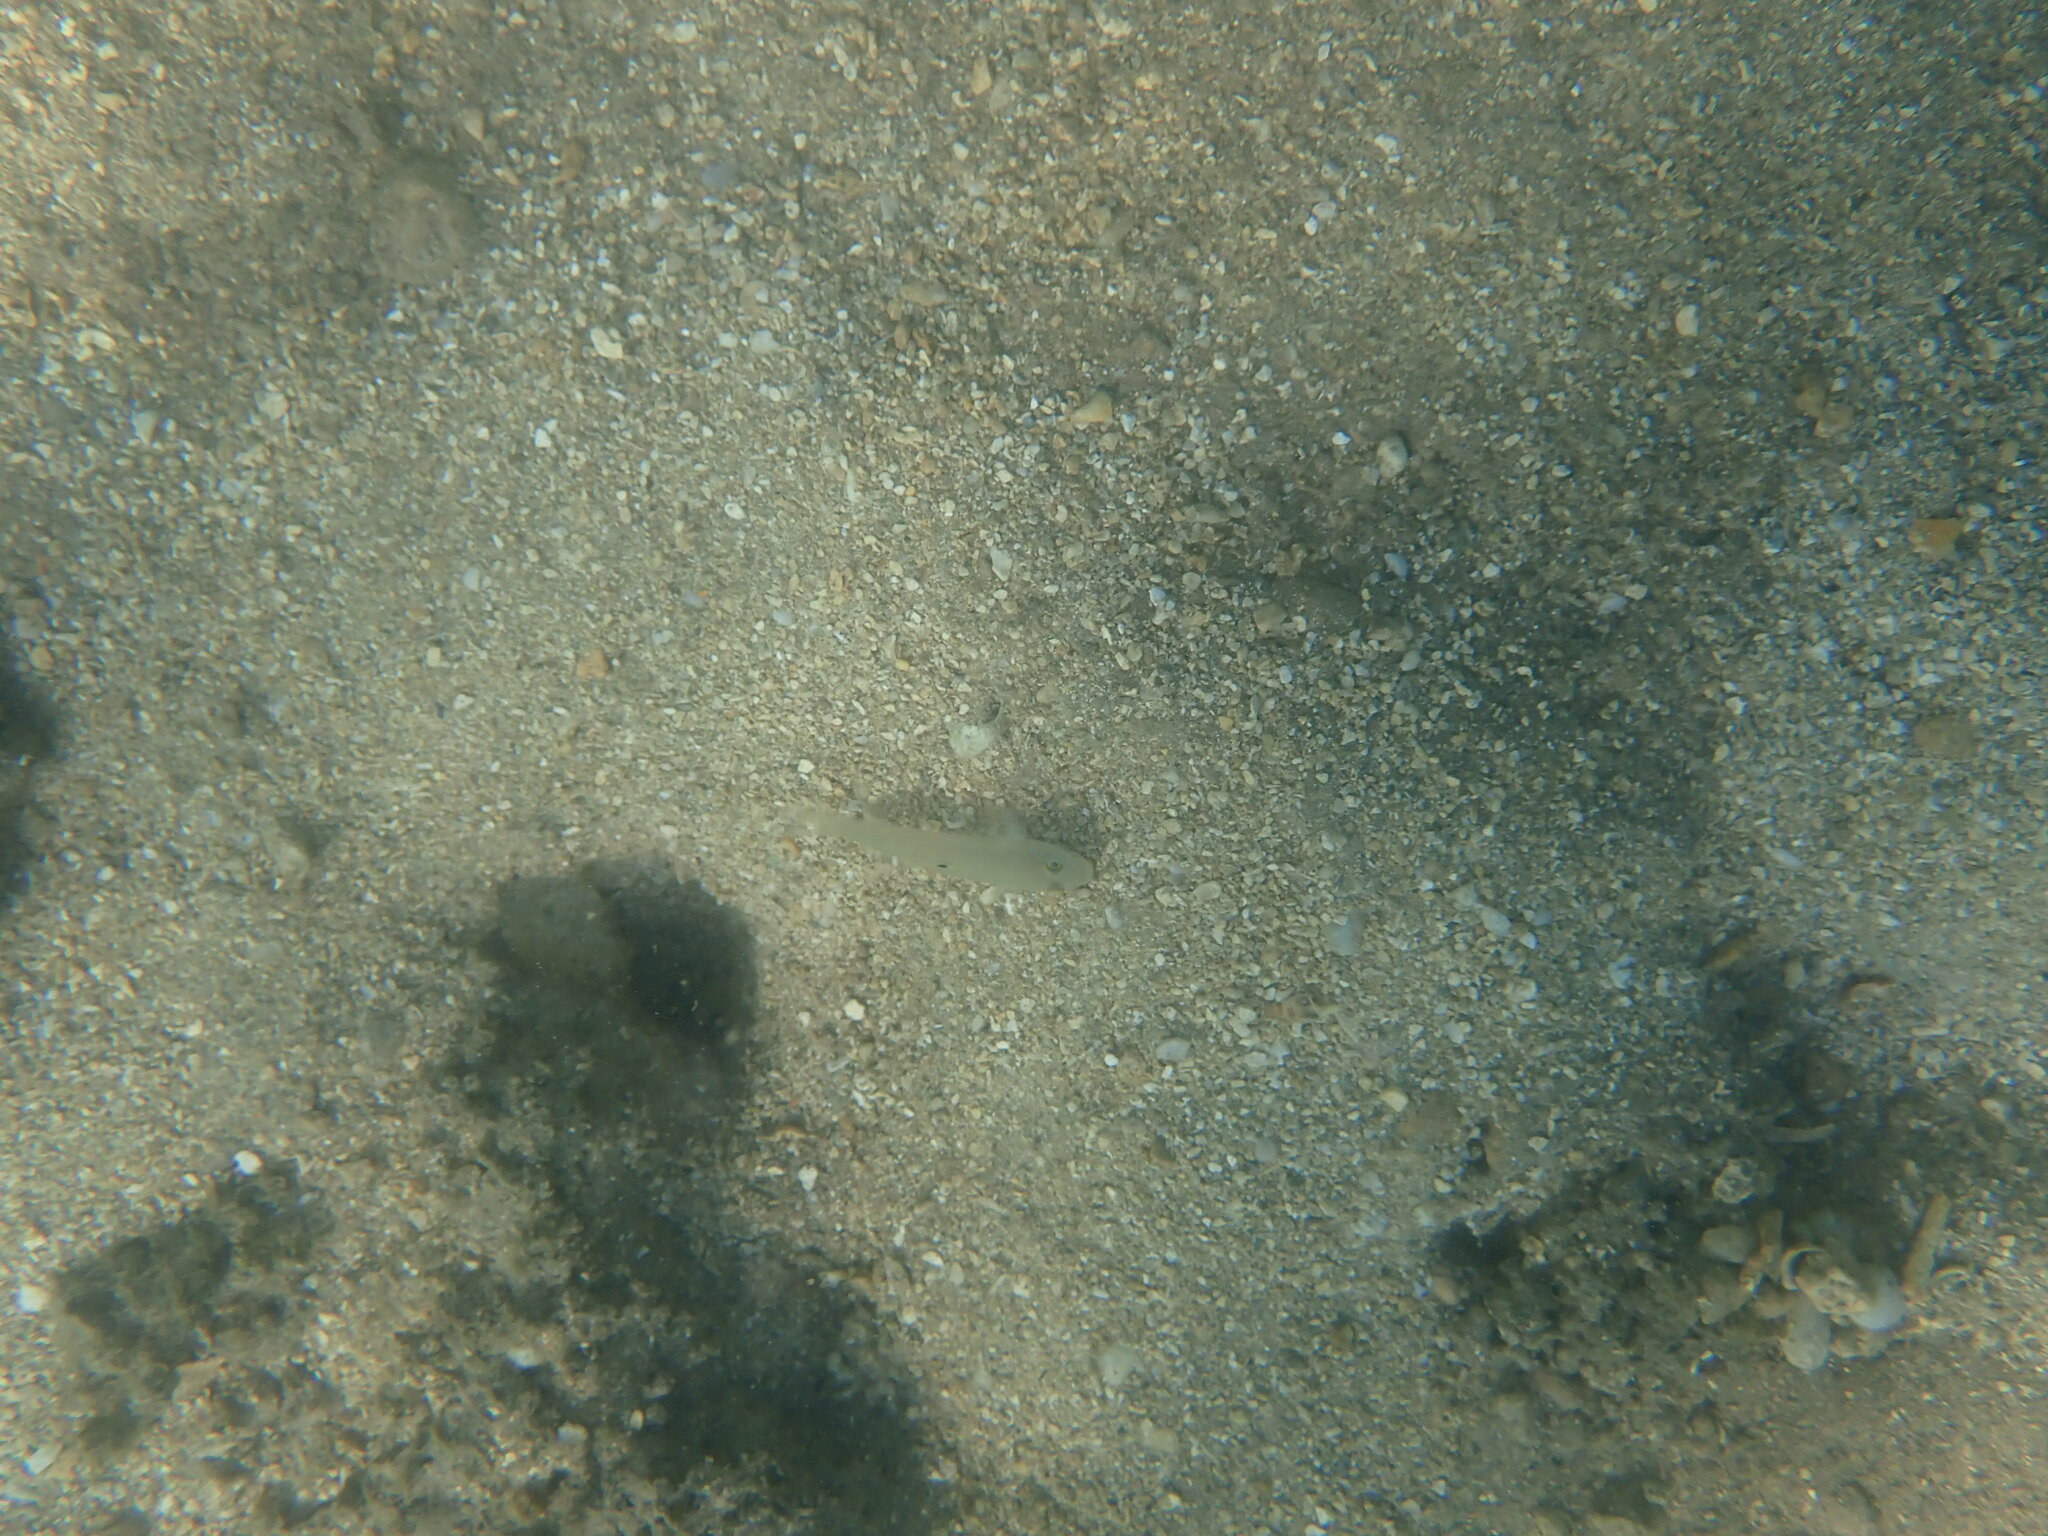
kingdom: Animalia
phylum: Chordata
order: Perciformes
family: Gobiidae
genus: Valenciennea
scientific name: Valenciennea sexguttata
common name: Sixspot goby
